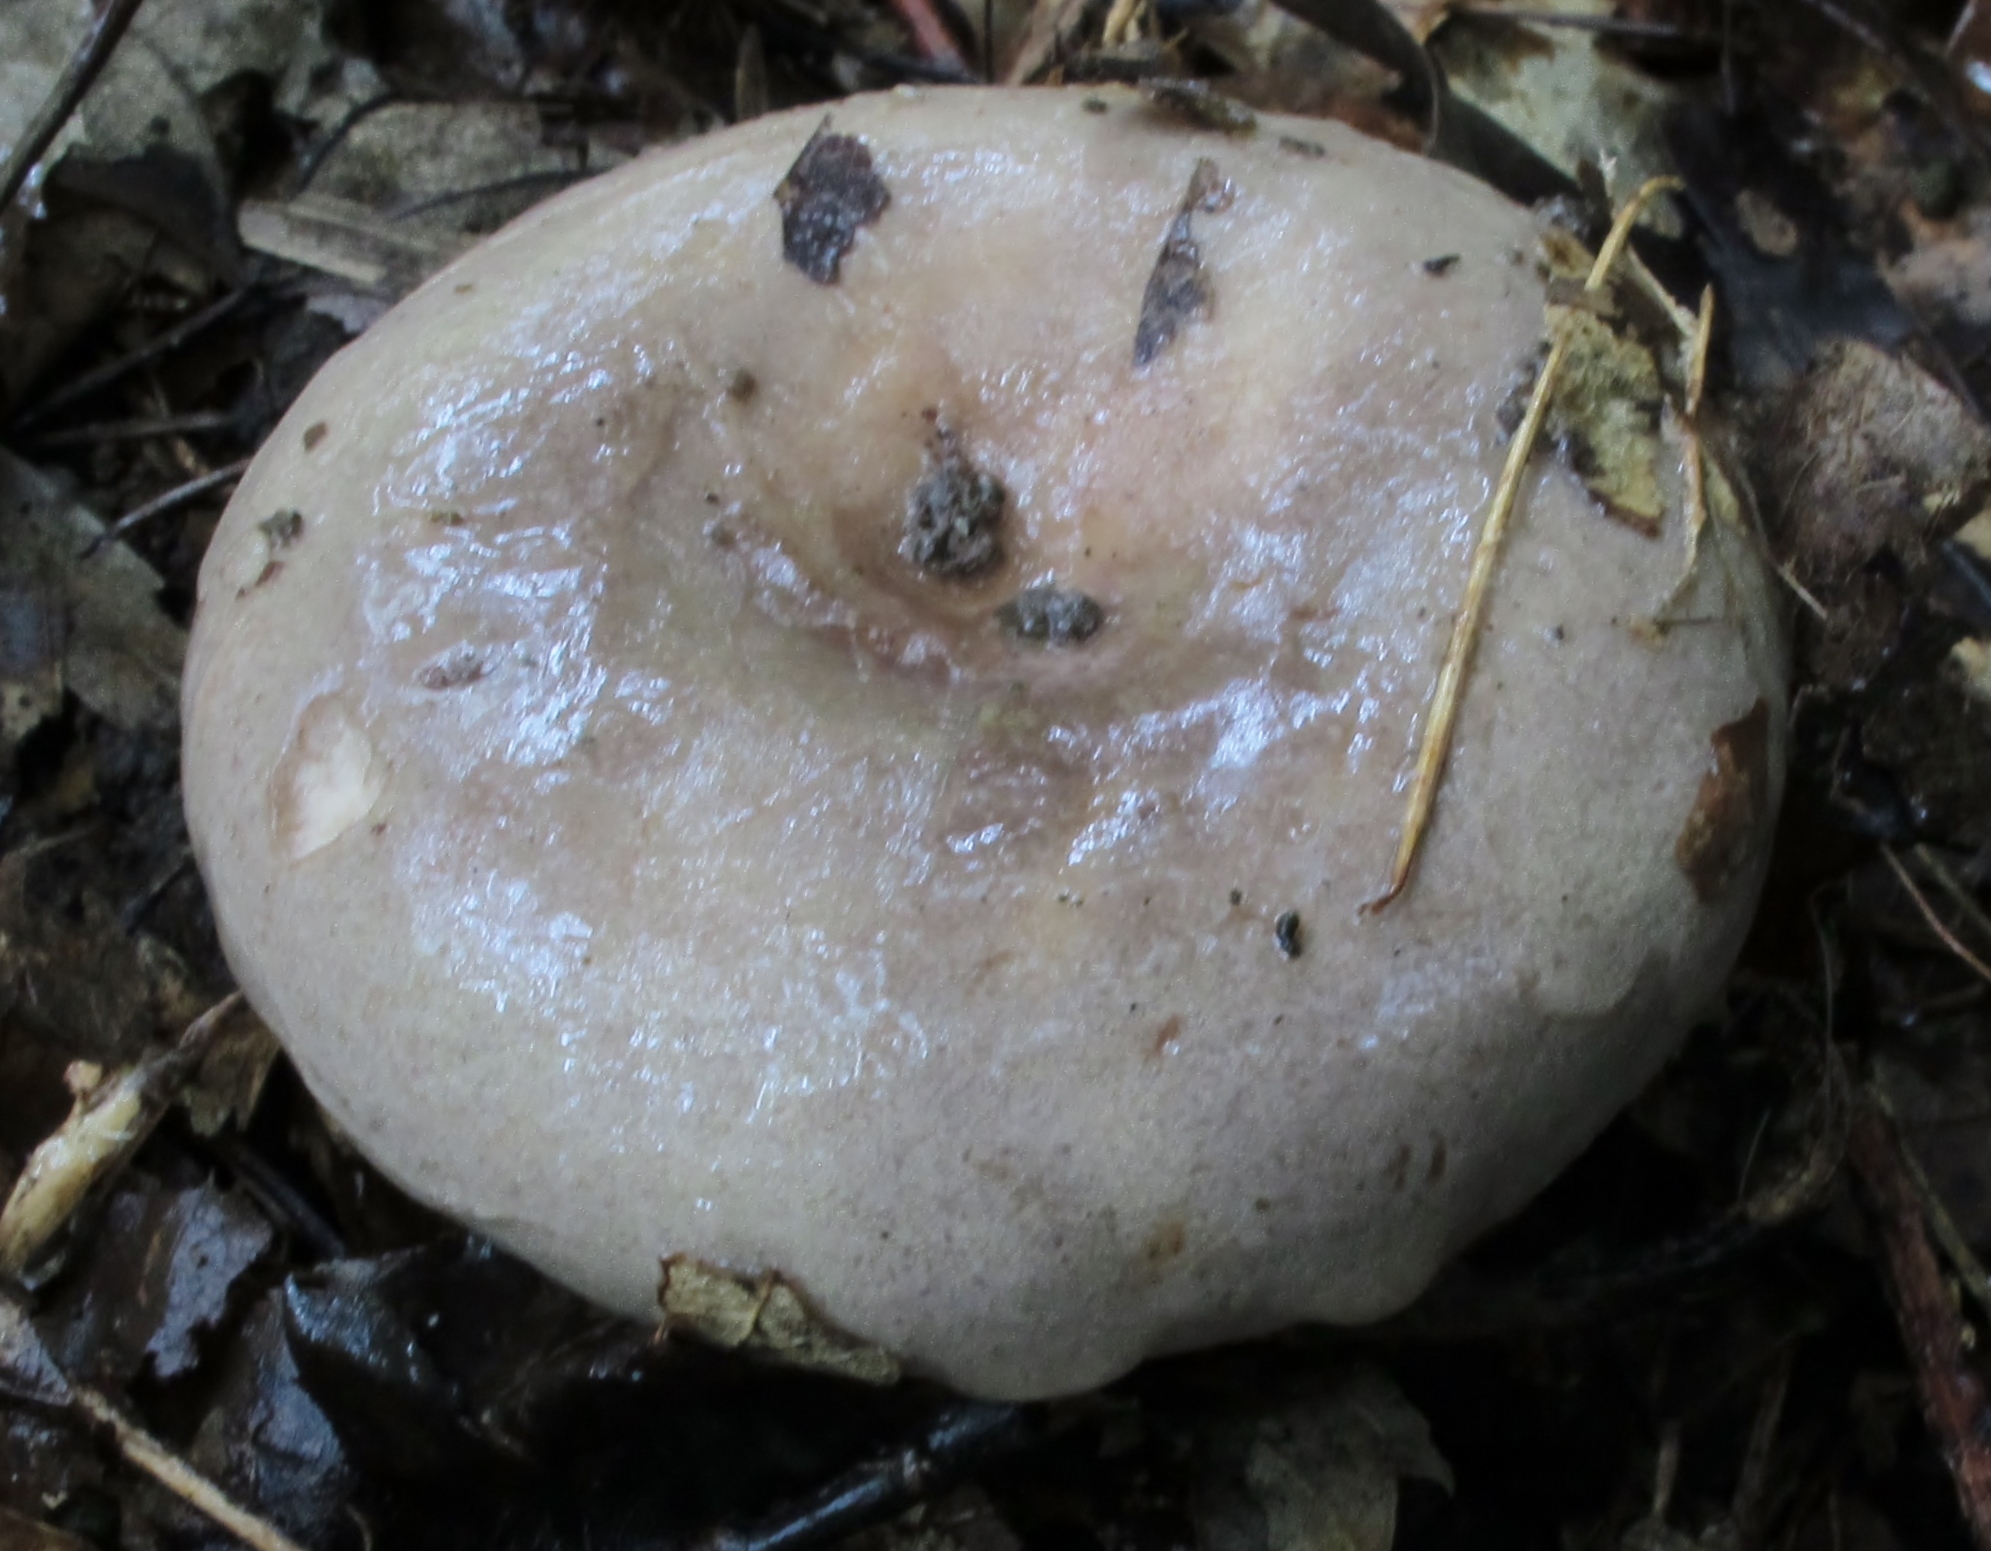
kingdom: Fungi
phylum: Basidiomycota
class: Agaricomycetes
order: Russulales
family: Russulaceae
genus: Lactarius
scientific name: Lactarius argillaceifolius
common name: Clay-gilled milkcap
